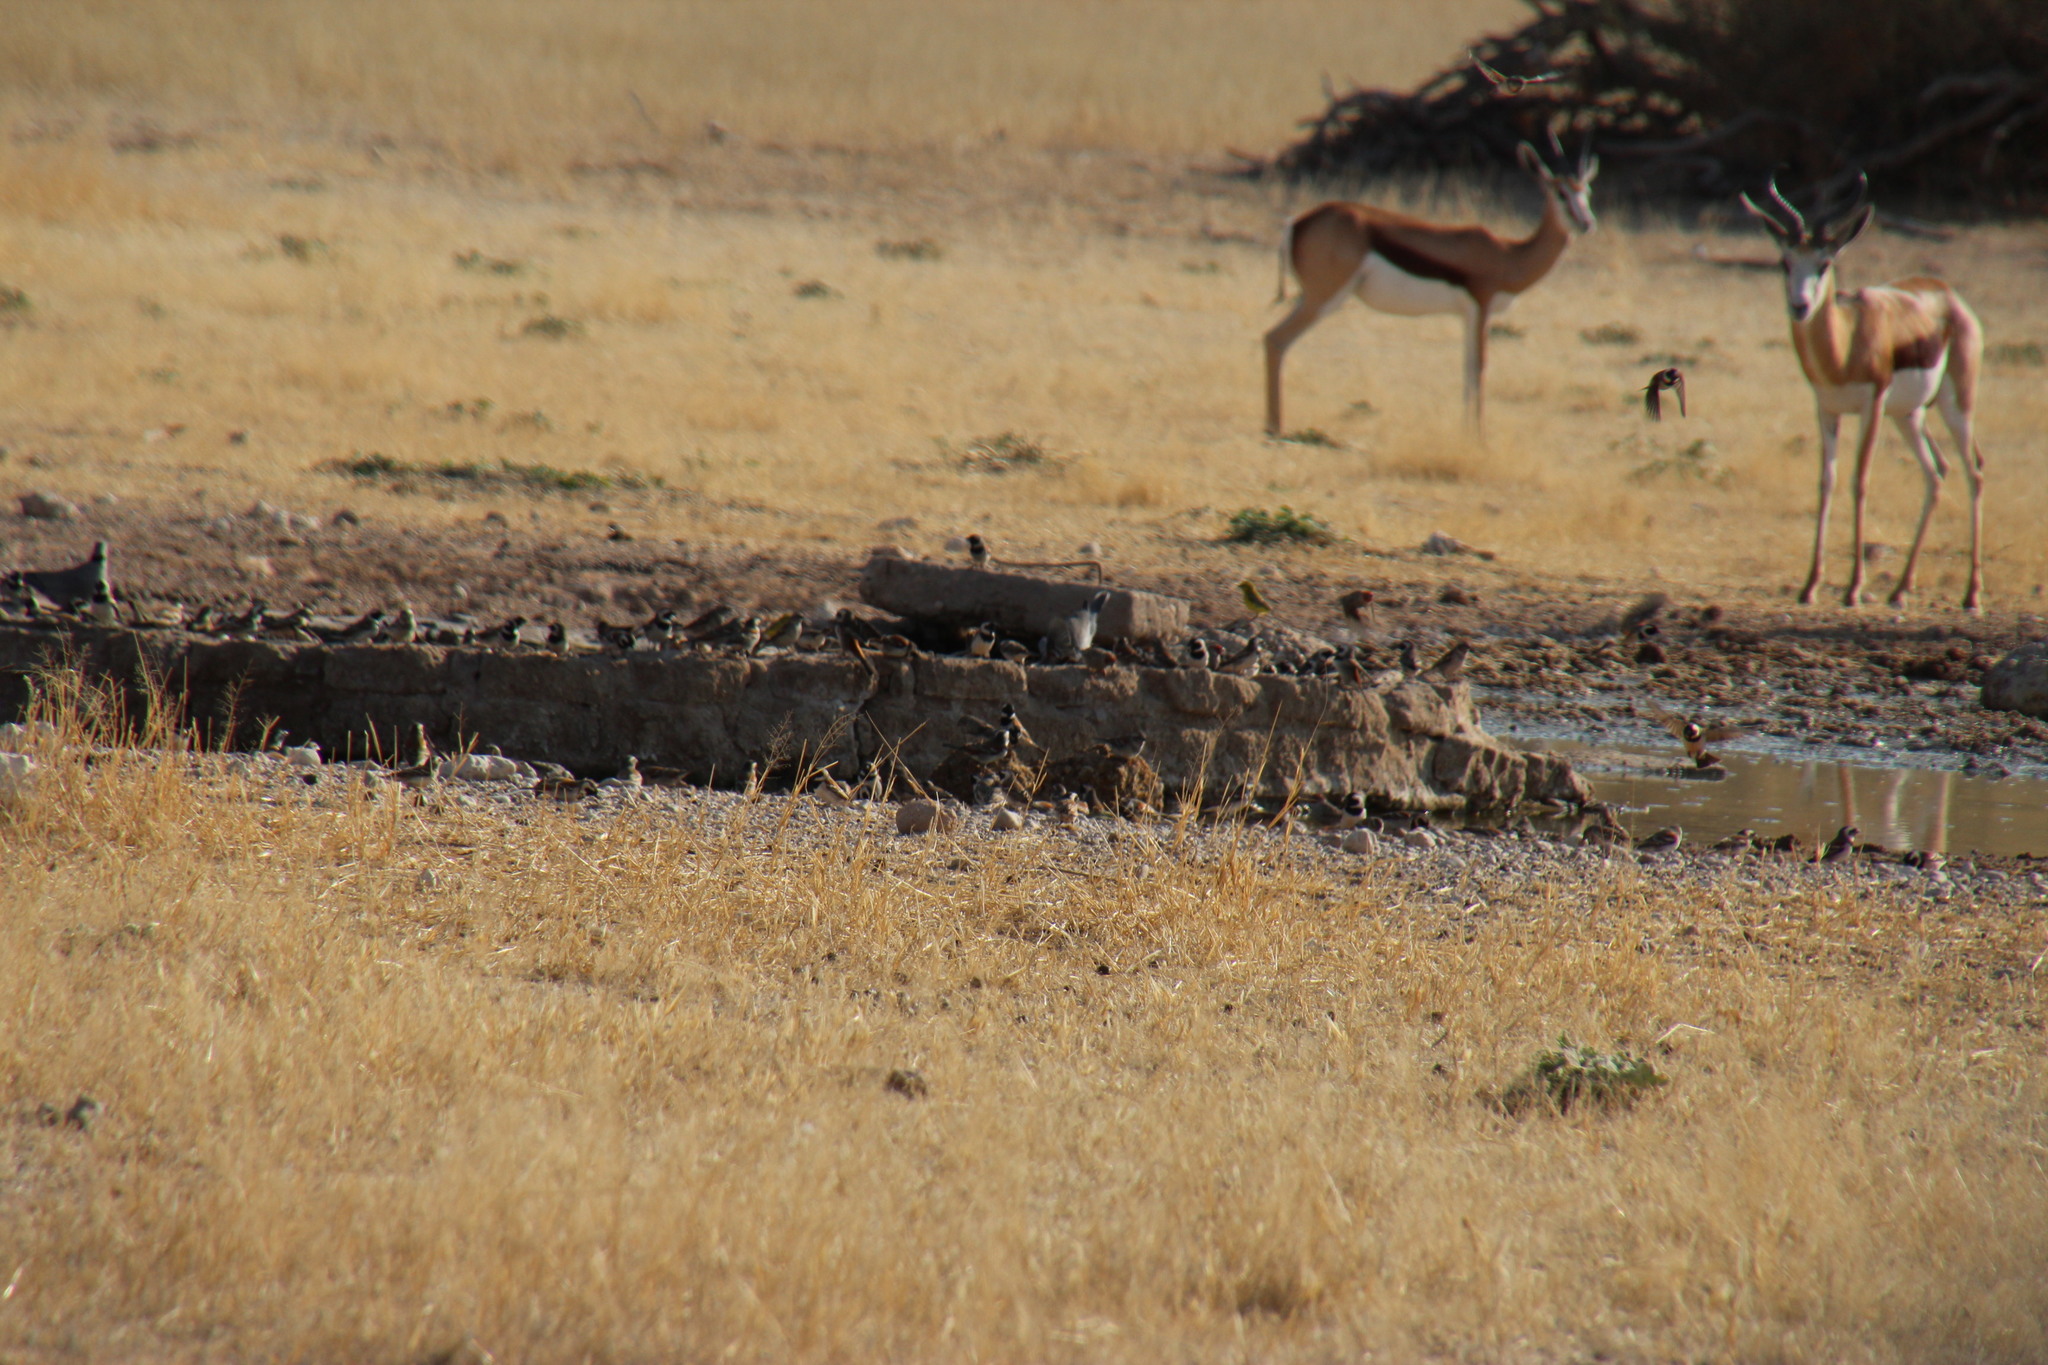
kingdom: Animalia
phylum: Chordata
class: Mammalia
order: Artiodactyla
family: Bovidae
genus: Antidorcas
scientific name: Antidorcas marsupialis
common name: Springbok
